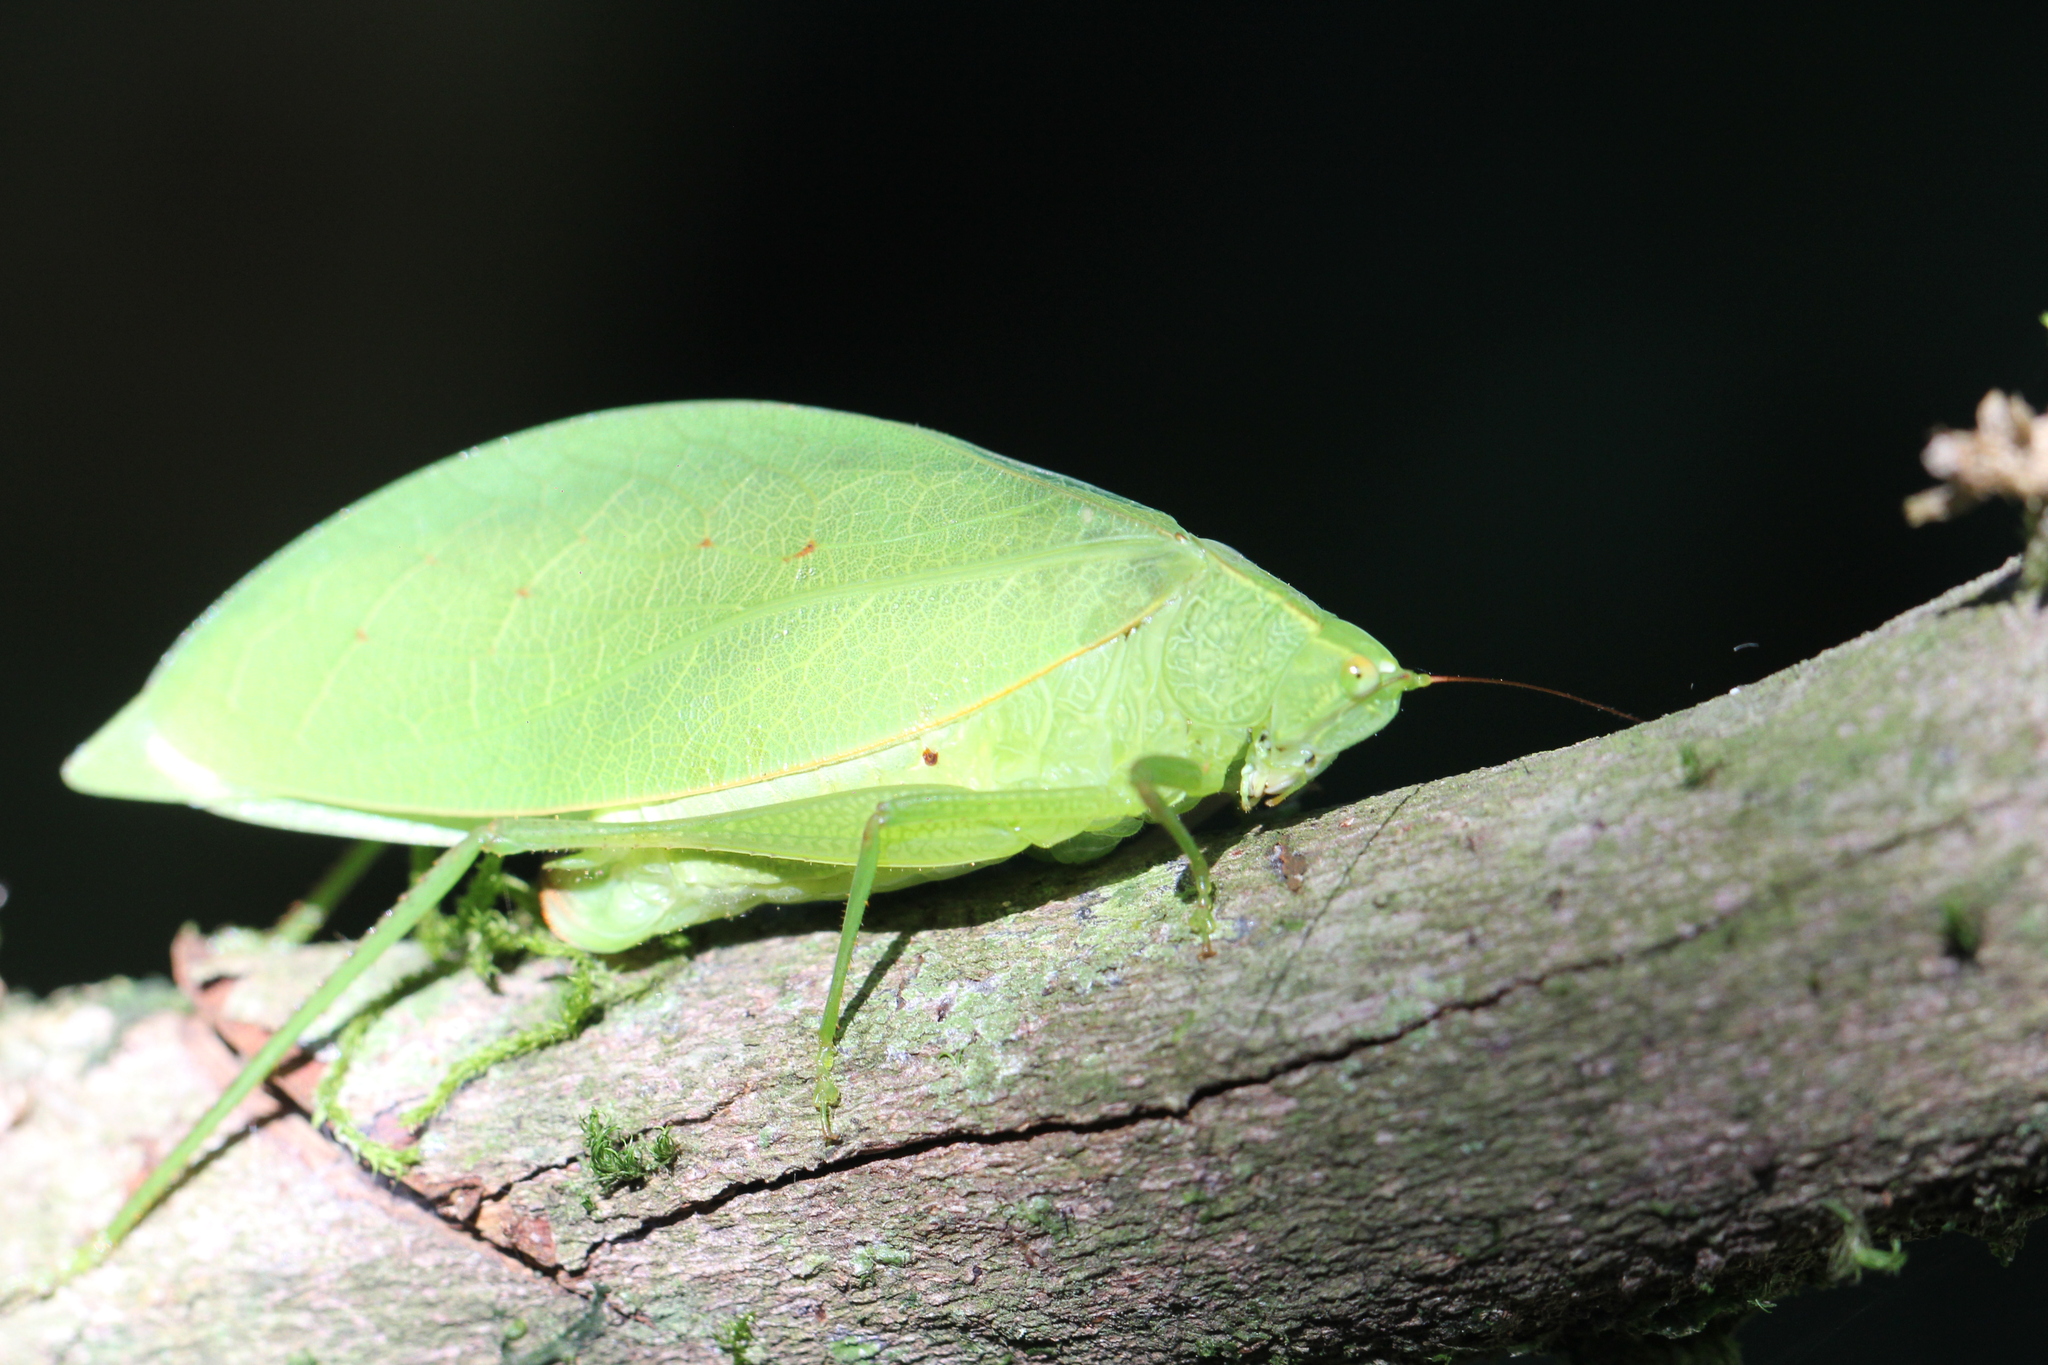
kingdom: Animalia
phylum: Arthropoda
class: Insecta
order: Orthoptera
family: Tettigoniidae
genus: Phylloptera
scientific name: Phylloptera ovalifolia
